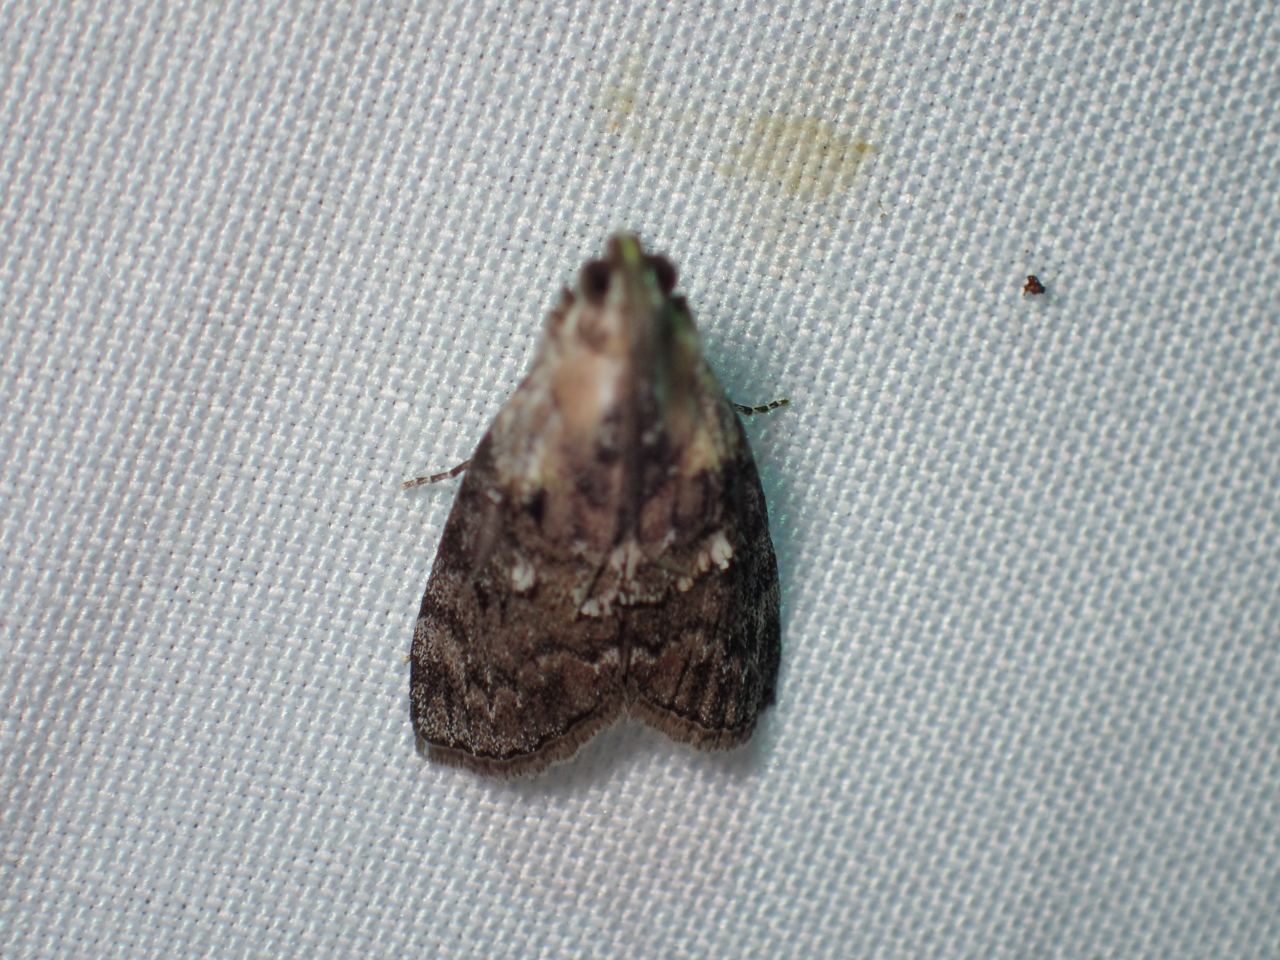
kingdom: Animalia
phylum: Arthropoda
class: Insecta
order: Lepidoptera
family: Pyralidae
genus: Pococera
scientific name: Pococera expandens
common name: Striped oak webworm moth
